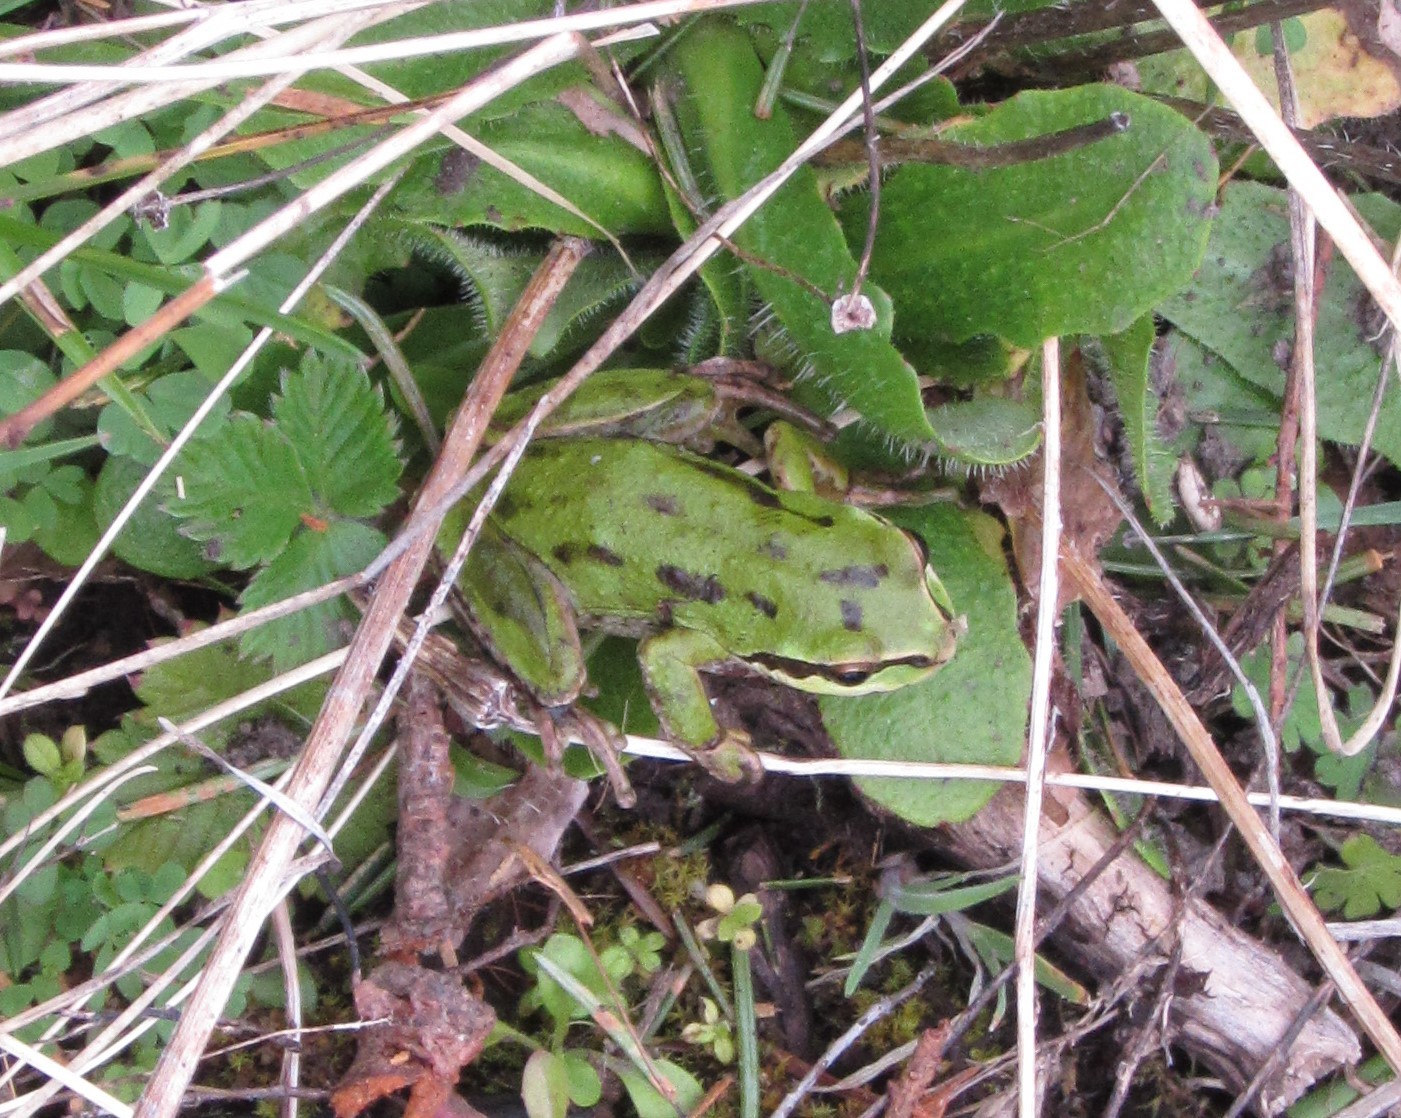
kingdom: Animalia
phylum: Chordata
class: Amphibia
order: Anura
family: Hylidae
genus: Pseudacris
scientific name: Pseudacris regilla
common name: Pacific chorus frog
